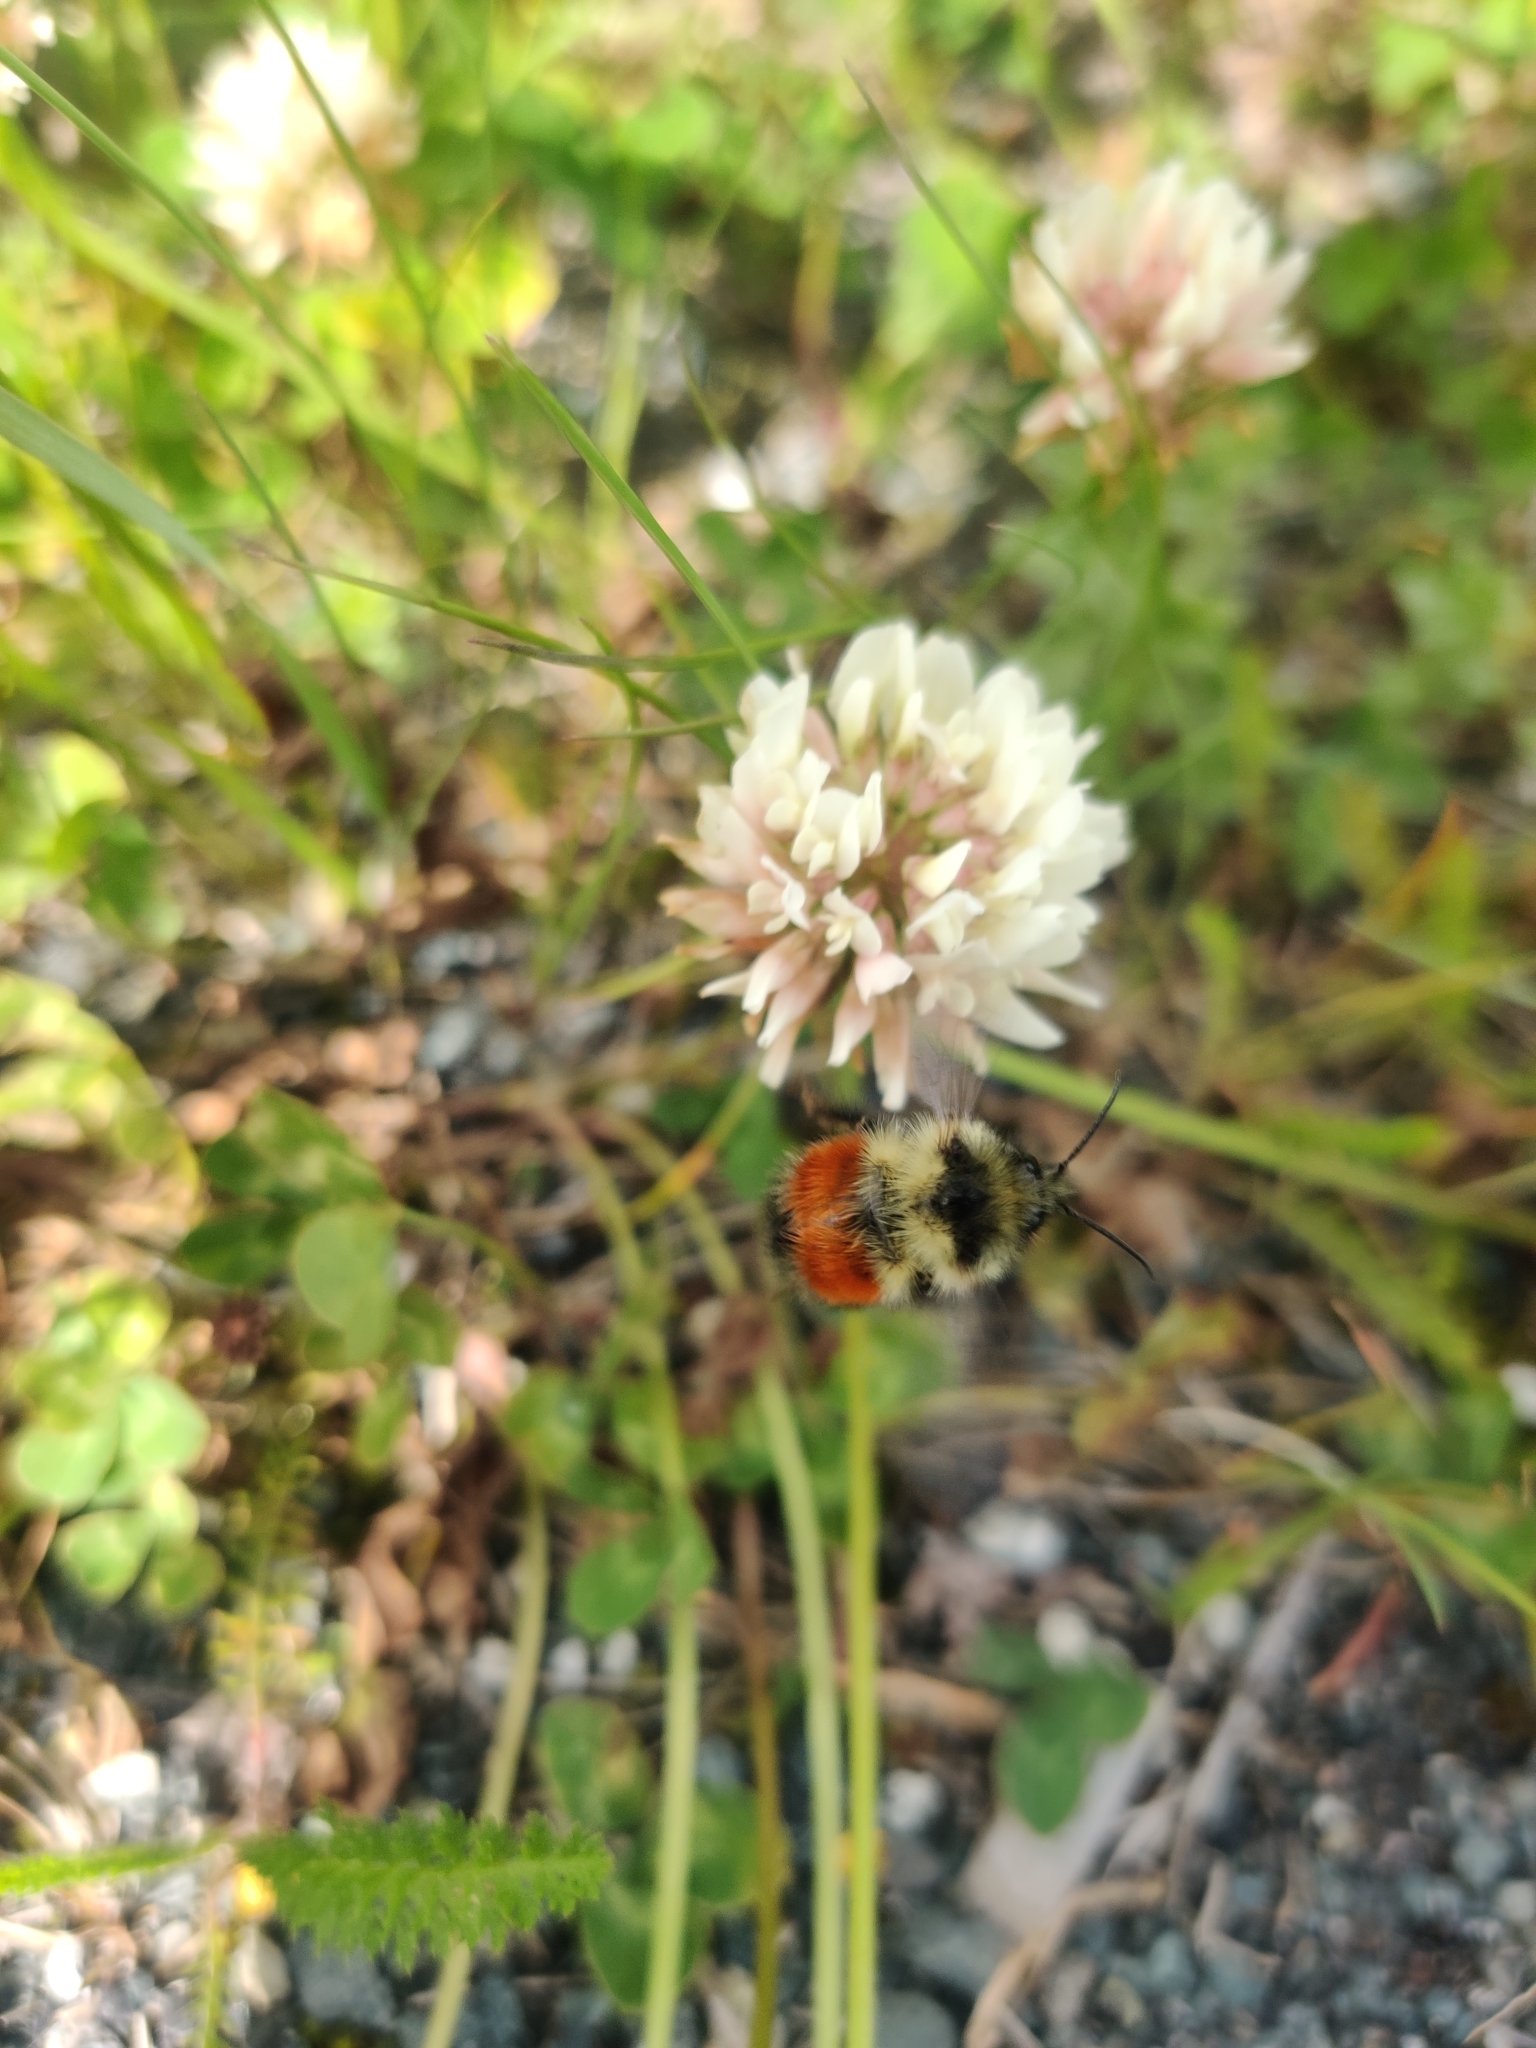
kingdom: Animalia
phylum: Arthropoda
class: Insecta
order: Hymenoptera
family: Apidae
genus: Bombus
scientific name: Bombus melanopygus
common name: Black tail bumble bee
